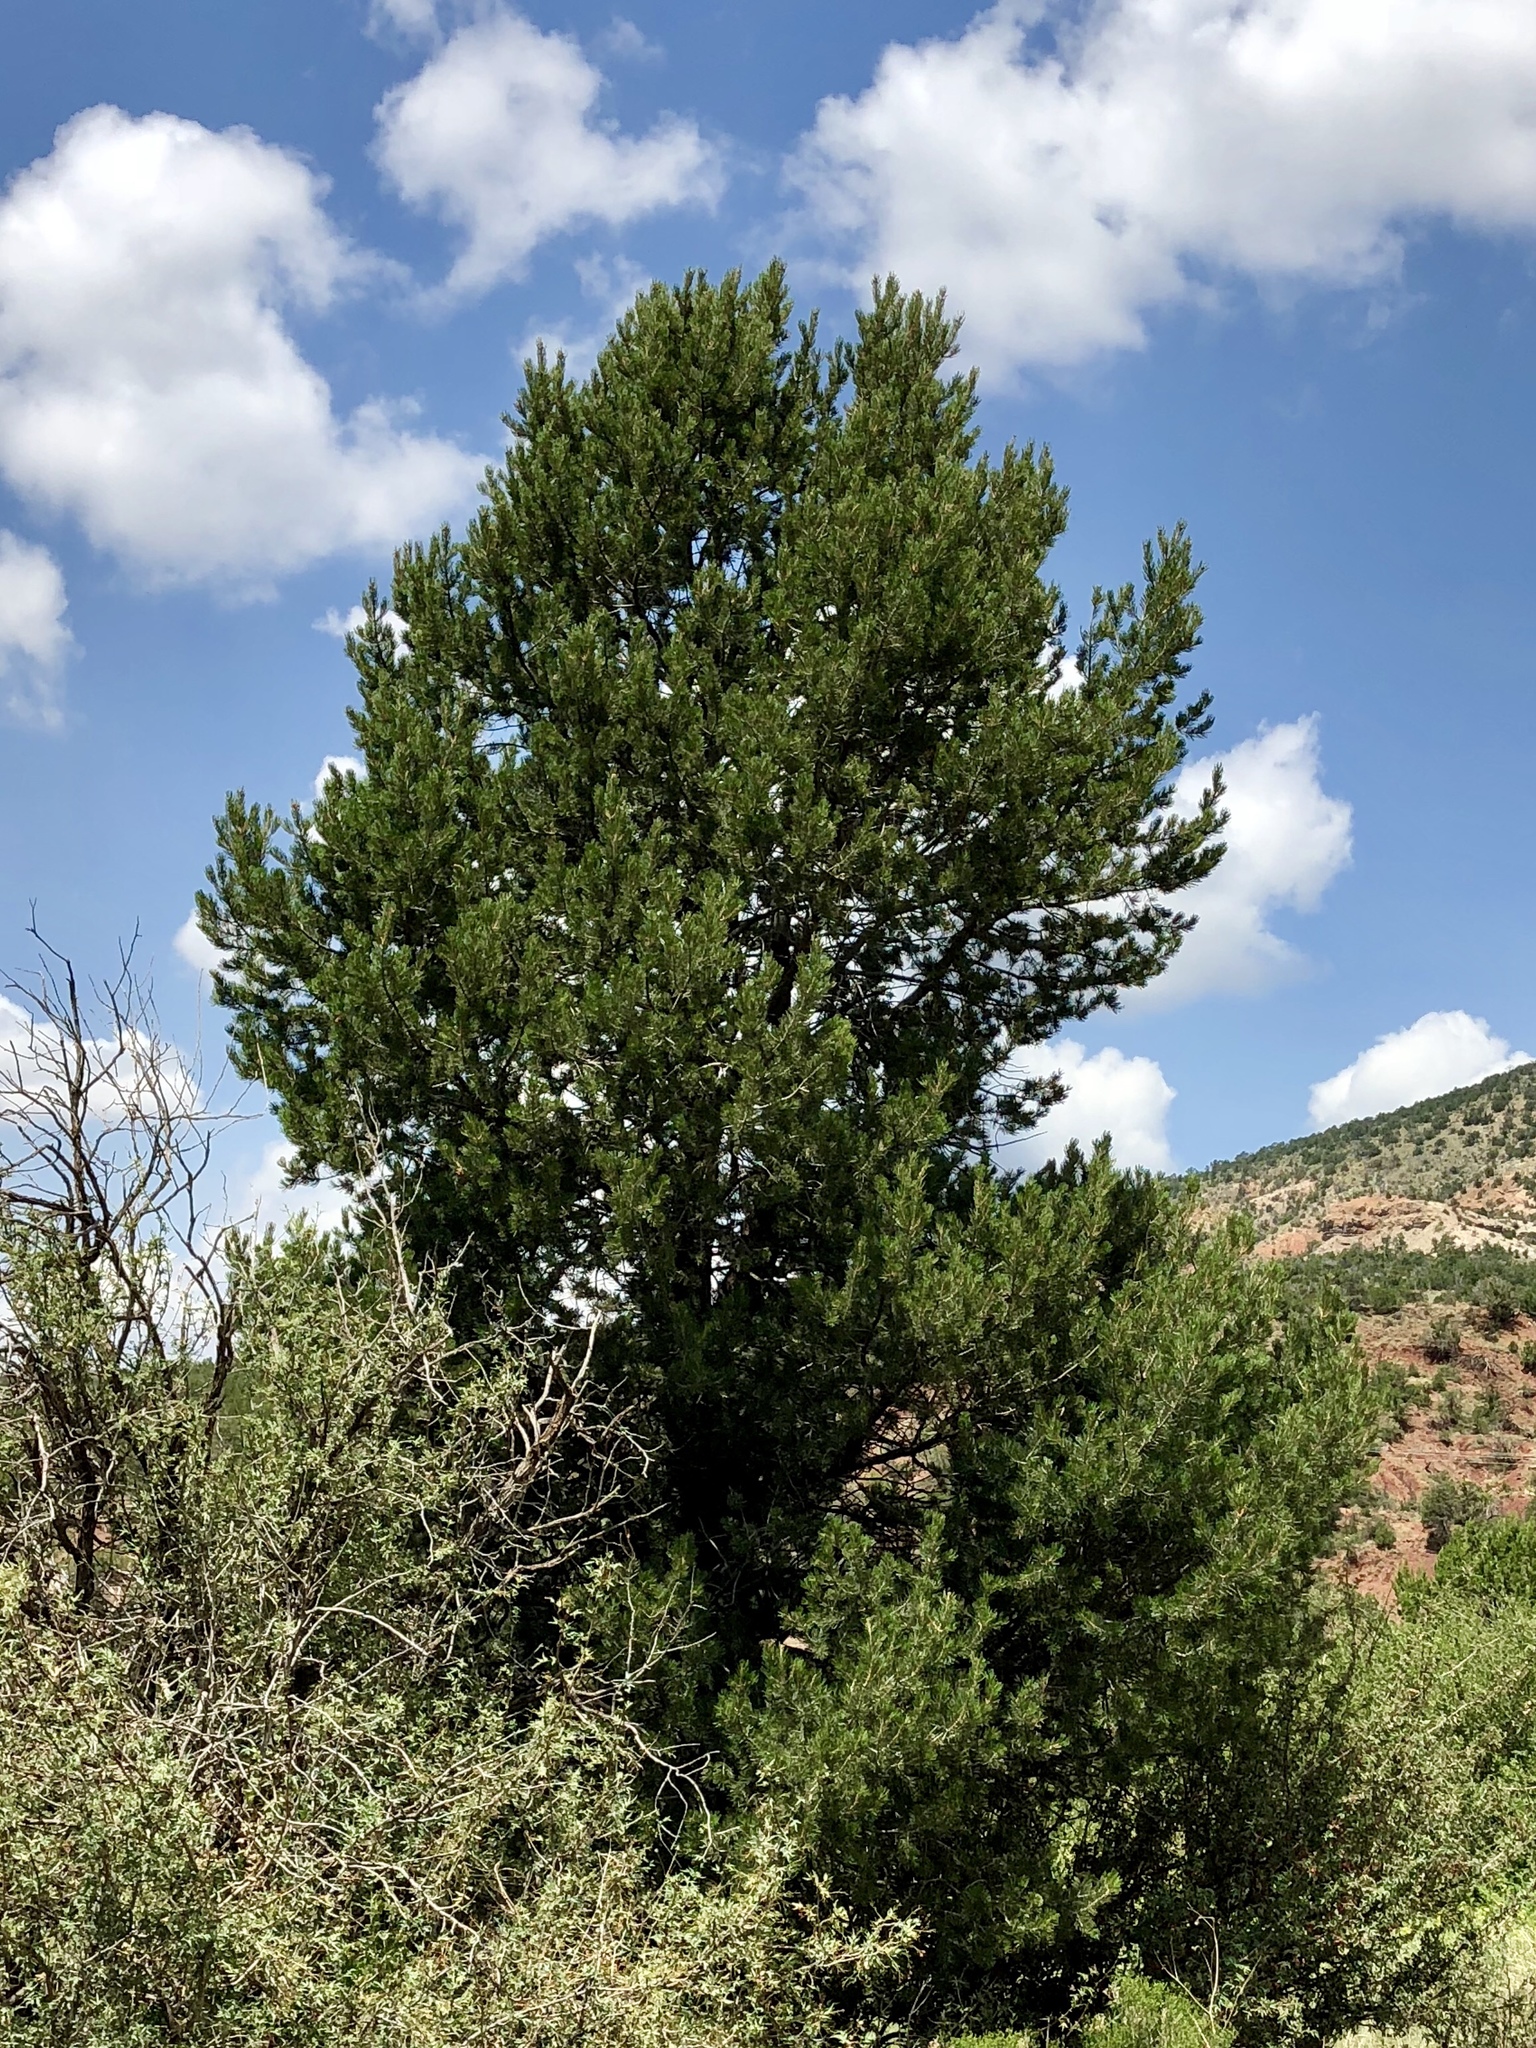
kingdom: Plantae
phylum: Tracheophyta
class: Pinopsida
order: Pinales
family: Pinaceae
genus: Pinus
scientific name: Pinus edulis
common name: Colorado pinyon
